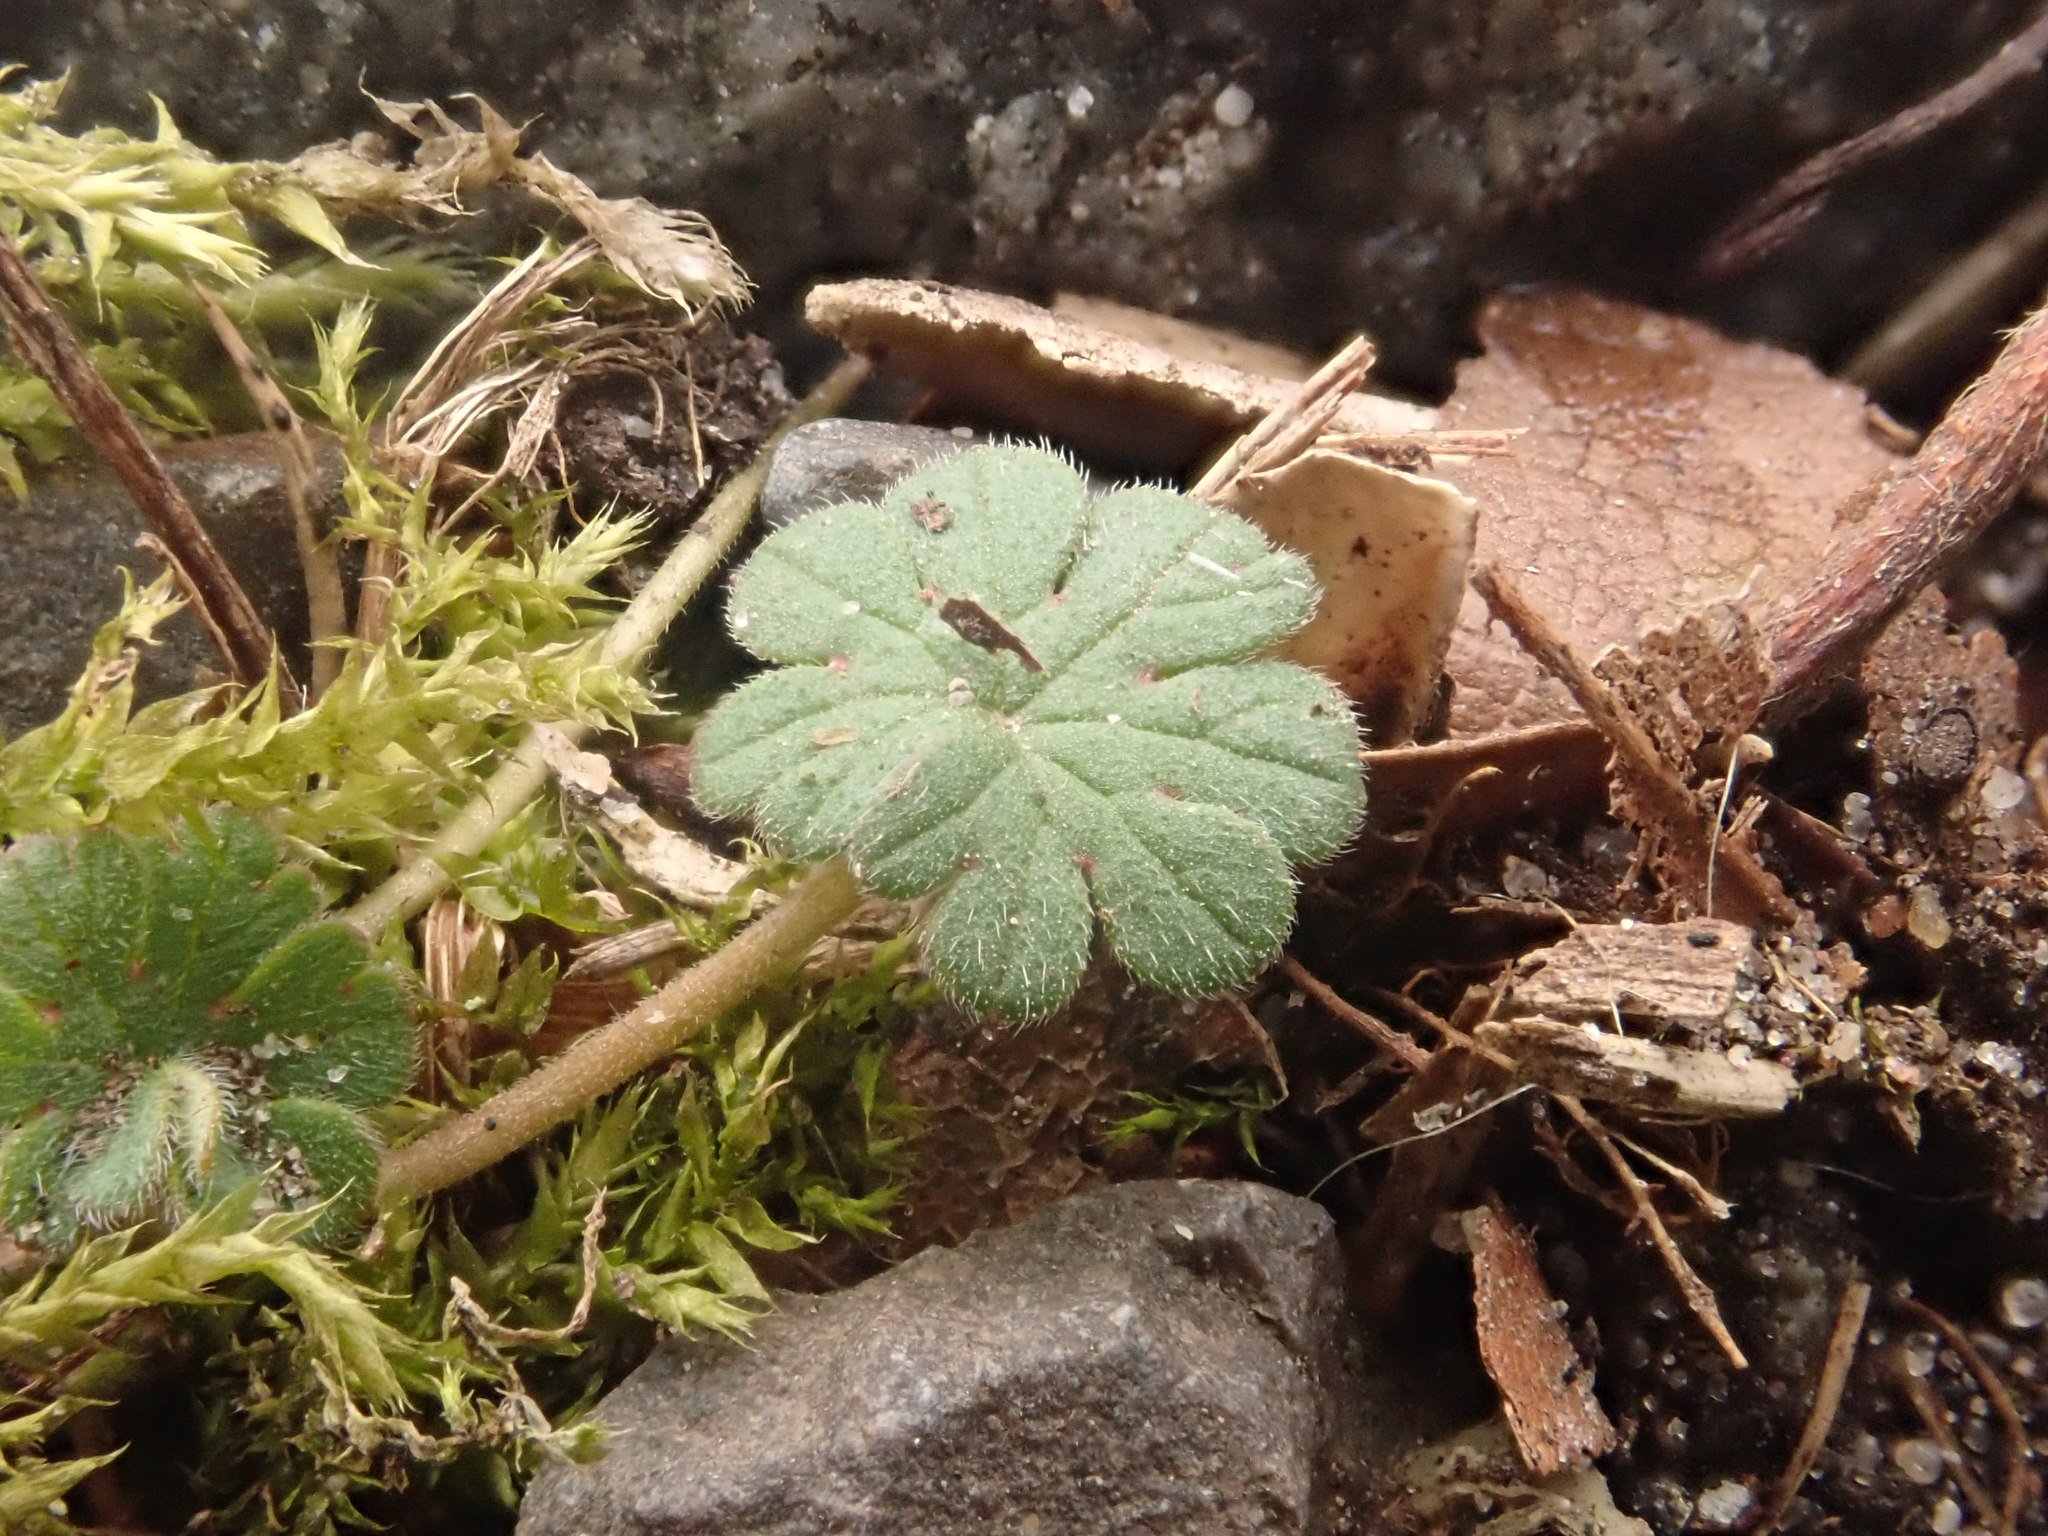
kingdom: Plantae
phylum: Tracheophyta
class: Magnoliopsida
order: Geraniales
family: Geraniaceae
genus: Geranium
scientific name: Geranium molle
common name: Dove's-foot crane's-bill
